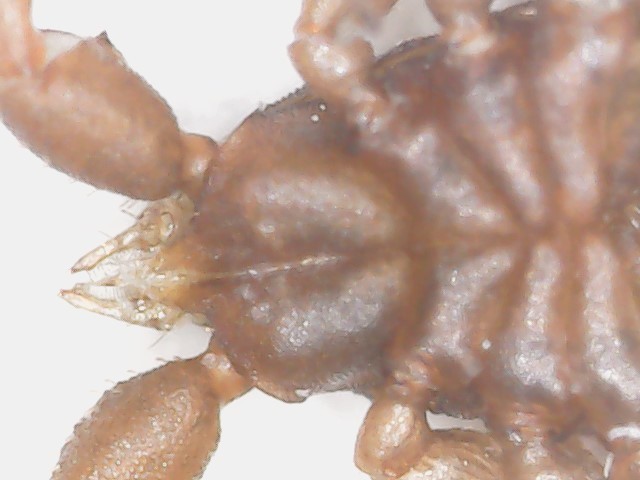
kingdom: Animalia
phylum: Arthropoda
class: Arachnida
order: Pseudoscorpiones
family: Cheliferidae
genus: Chelifer
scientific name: Chelifer cancroides
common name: House false-scorpion
